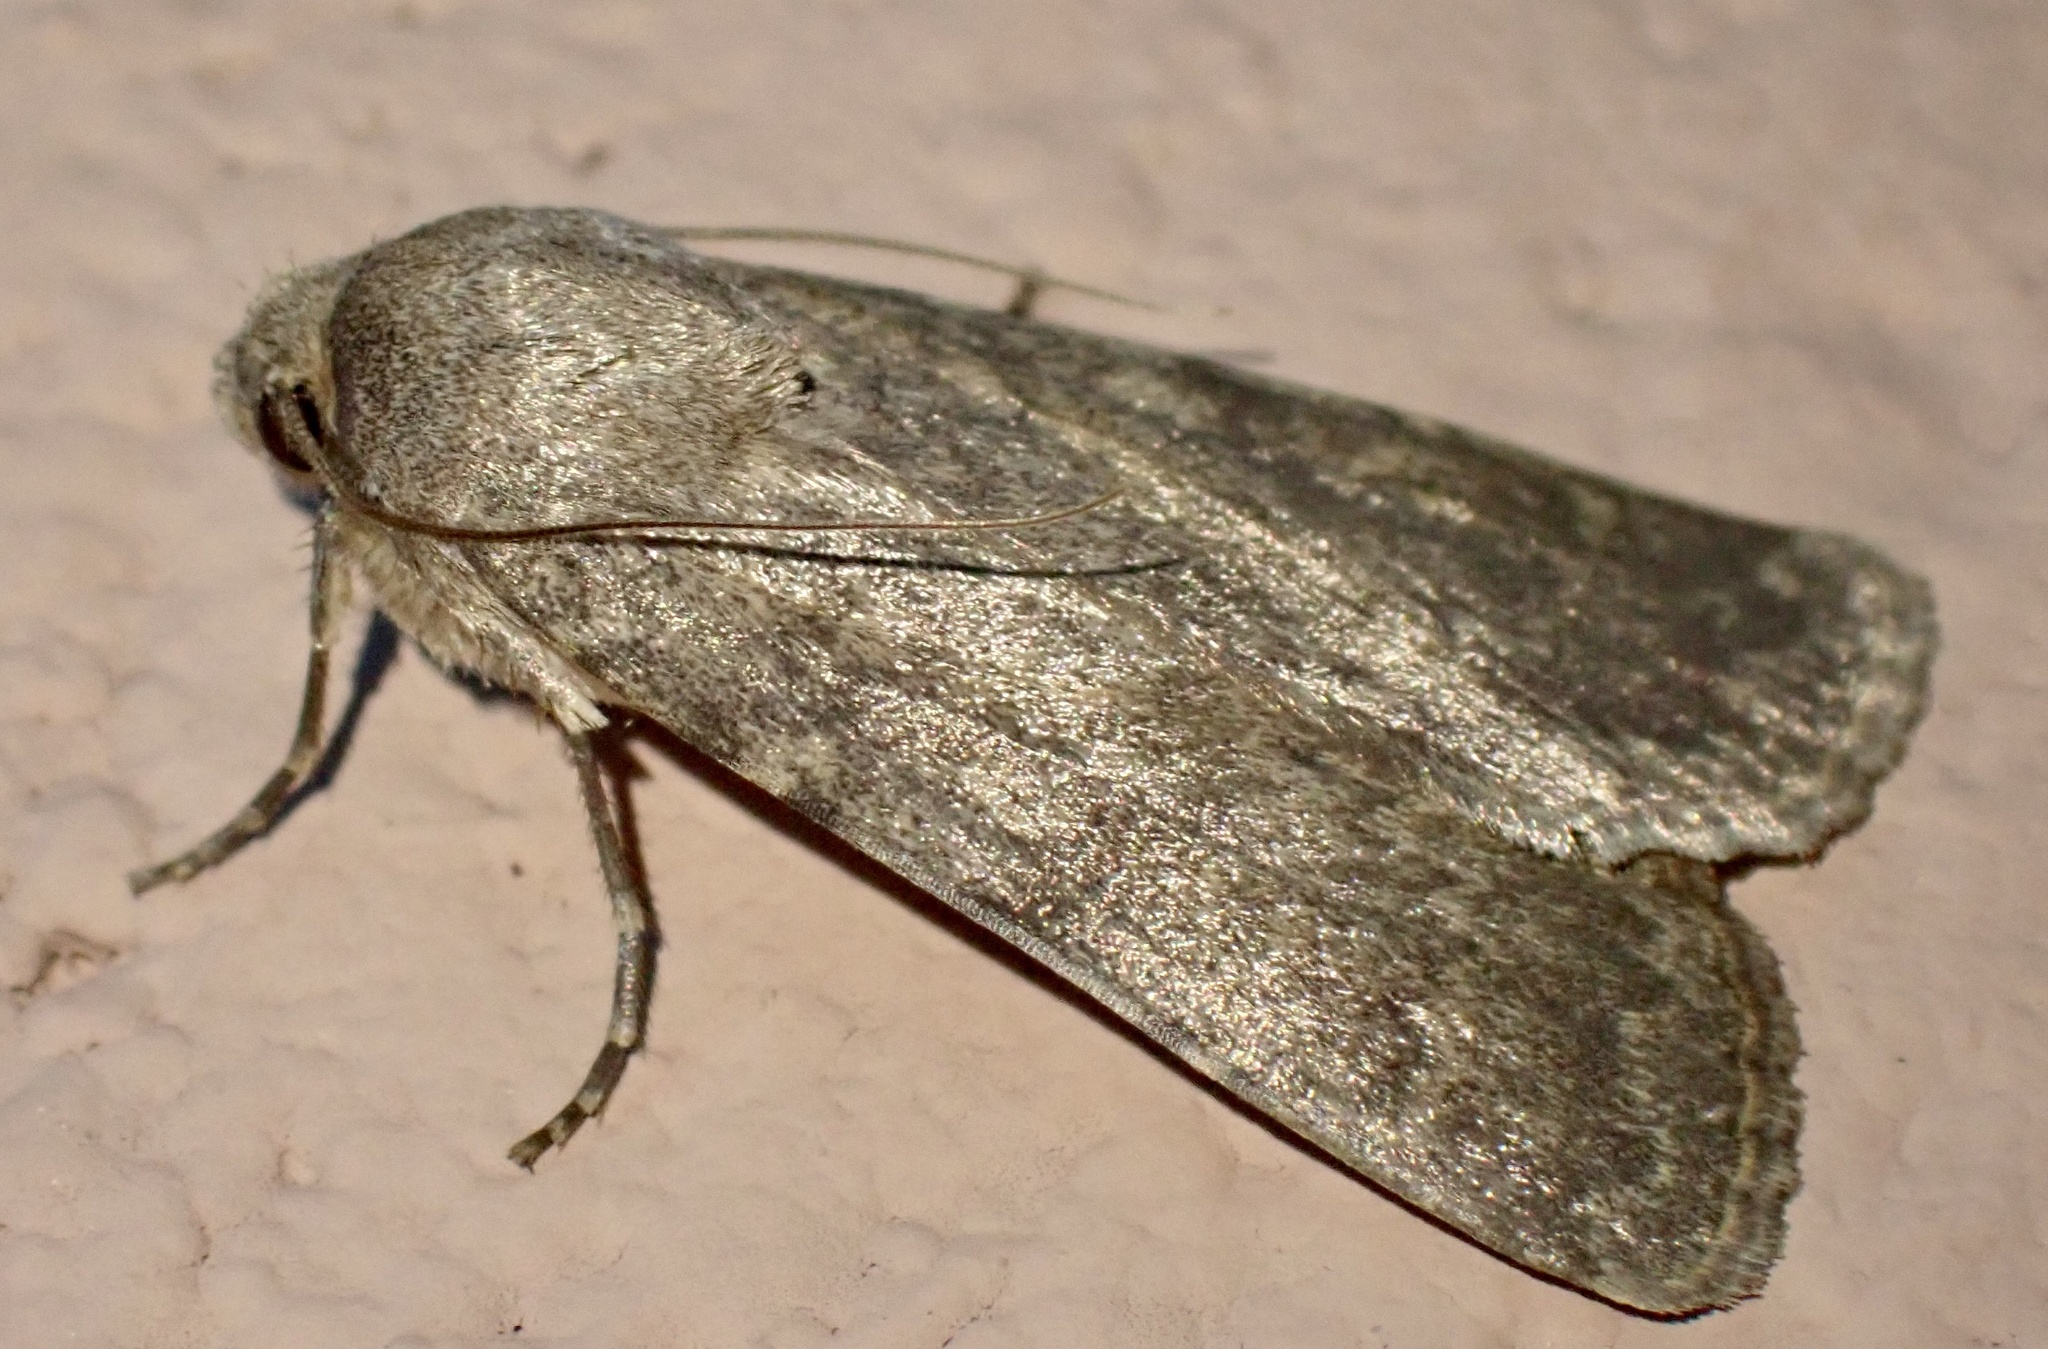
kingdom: Animalia
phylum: Arthropoda
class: Insecta
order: Lepidoptera
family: Noctuidae
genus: Actebia
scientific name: Actebia photophila
